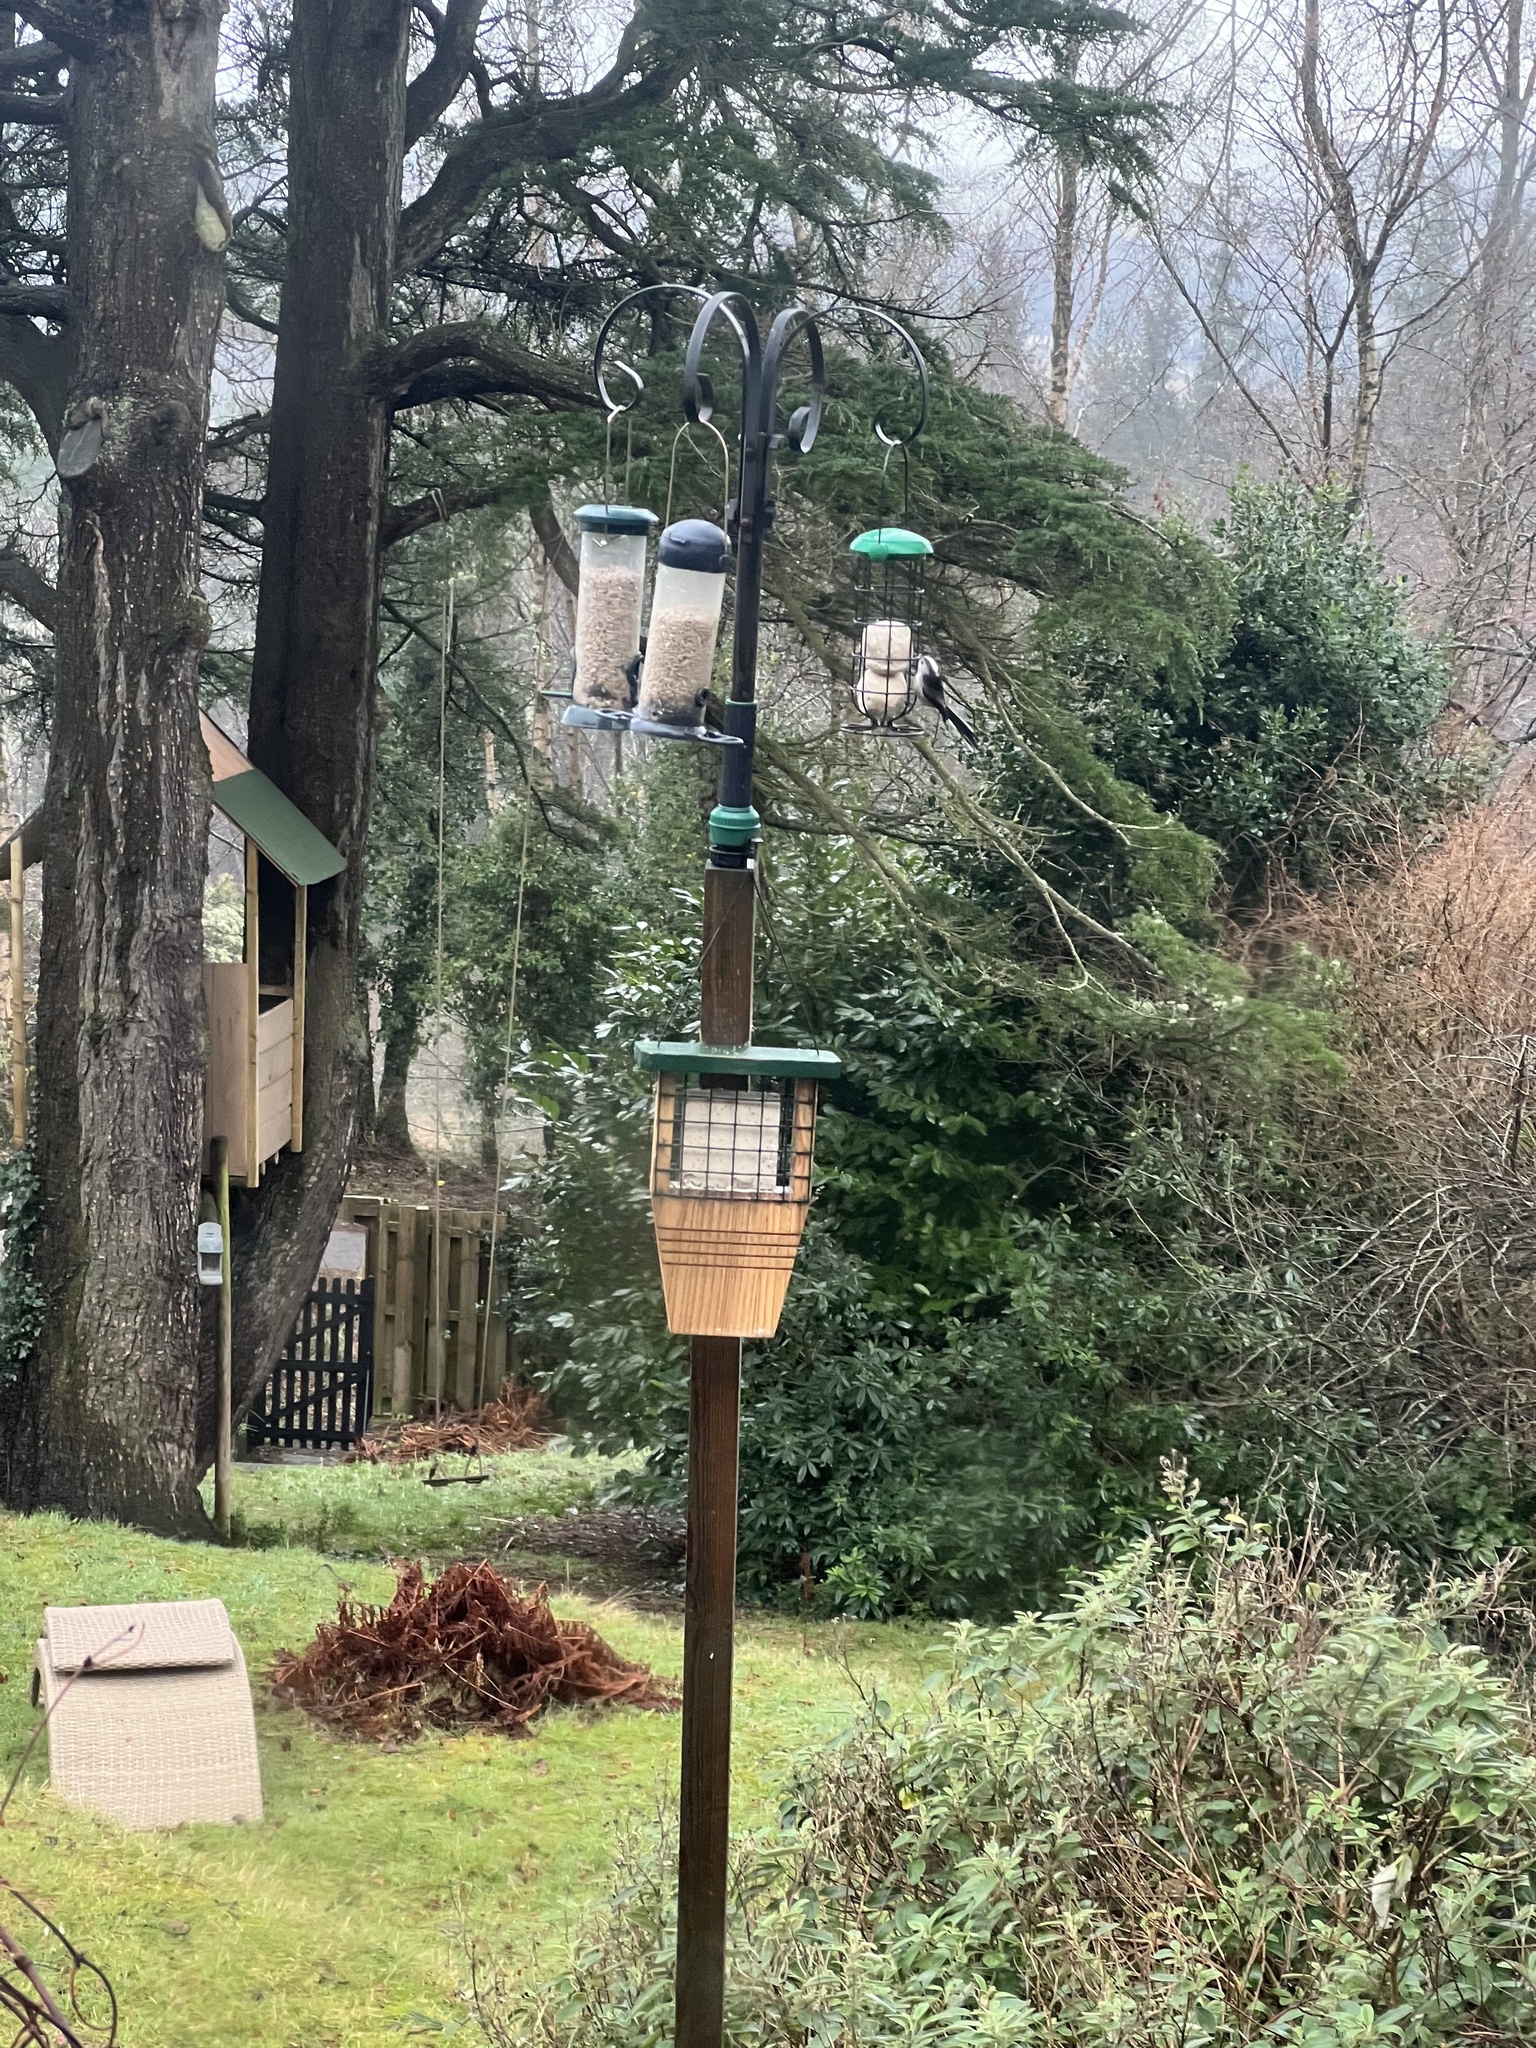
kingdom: Animalia
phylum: Chordata
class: Aves
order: Passeriformes
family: Aegithalidae
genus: Aegithalos
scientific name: Aegithalos caudatus
